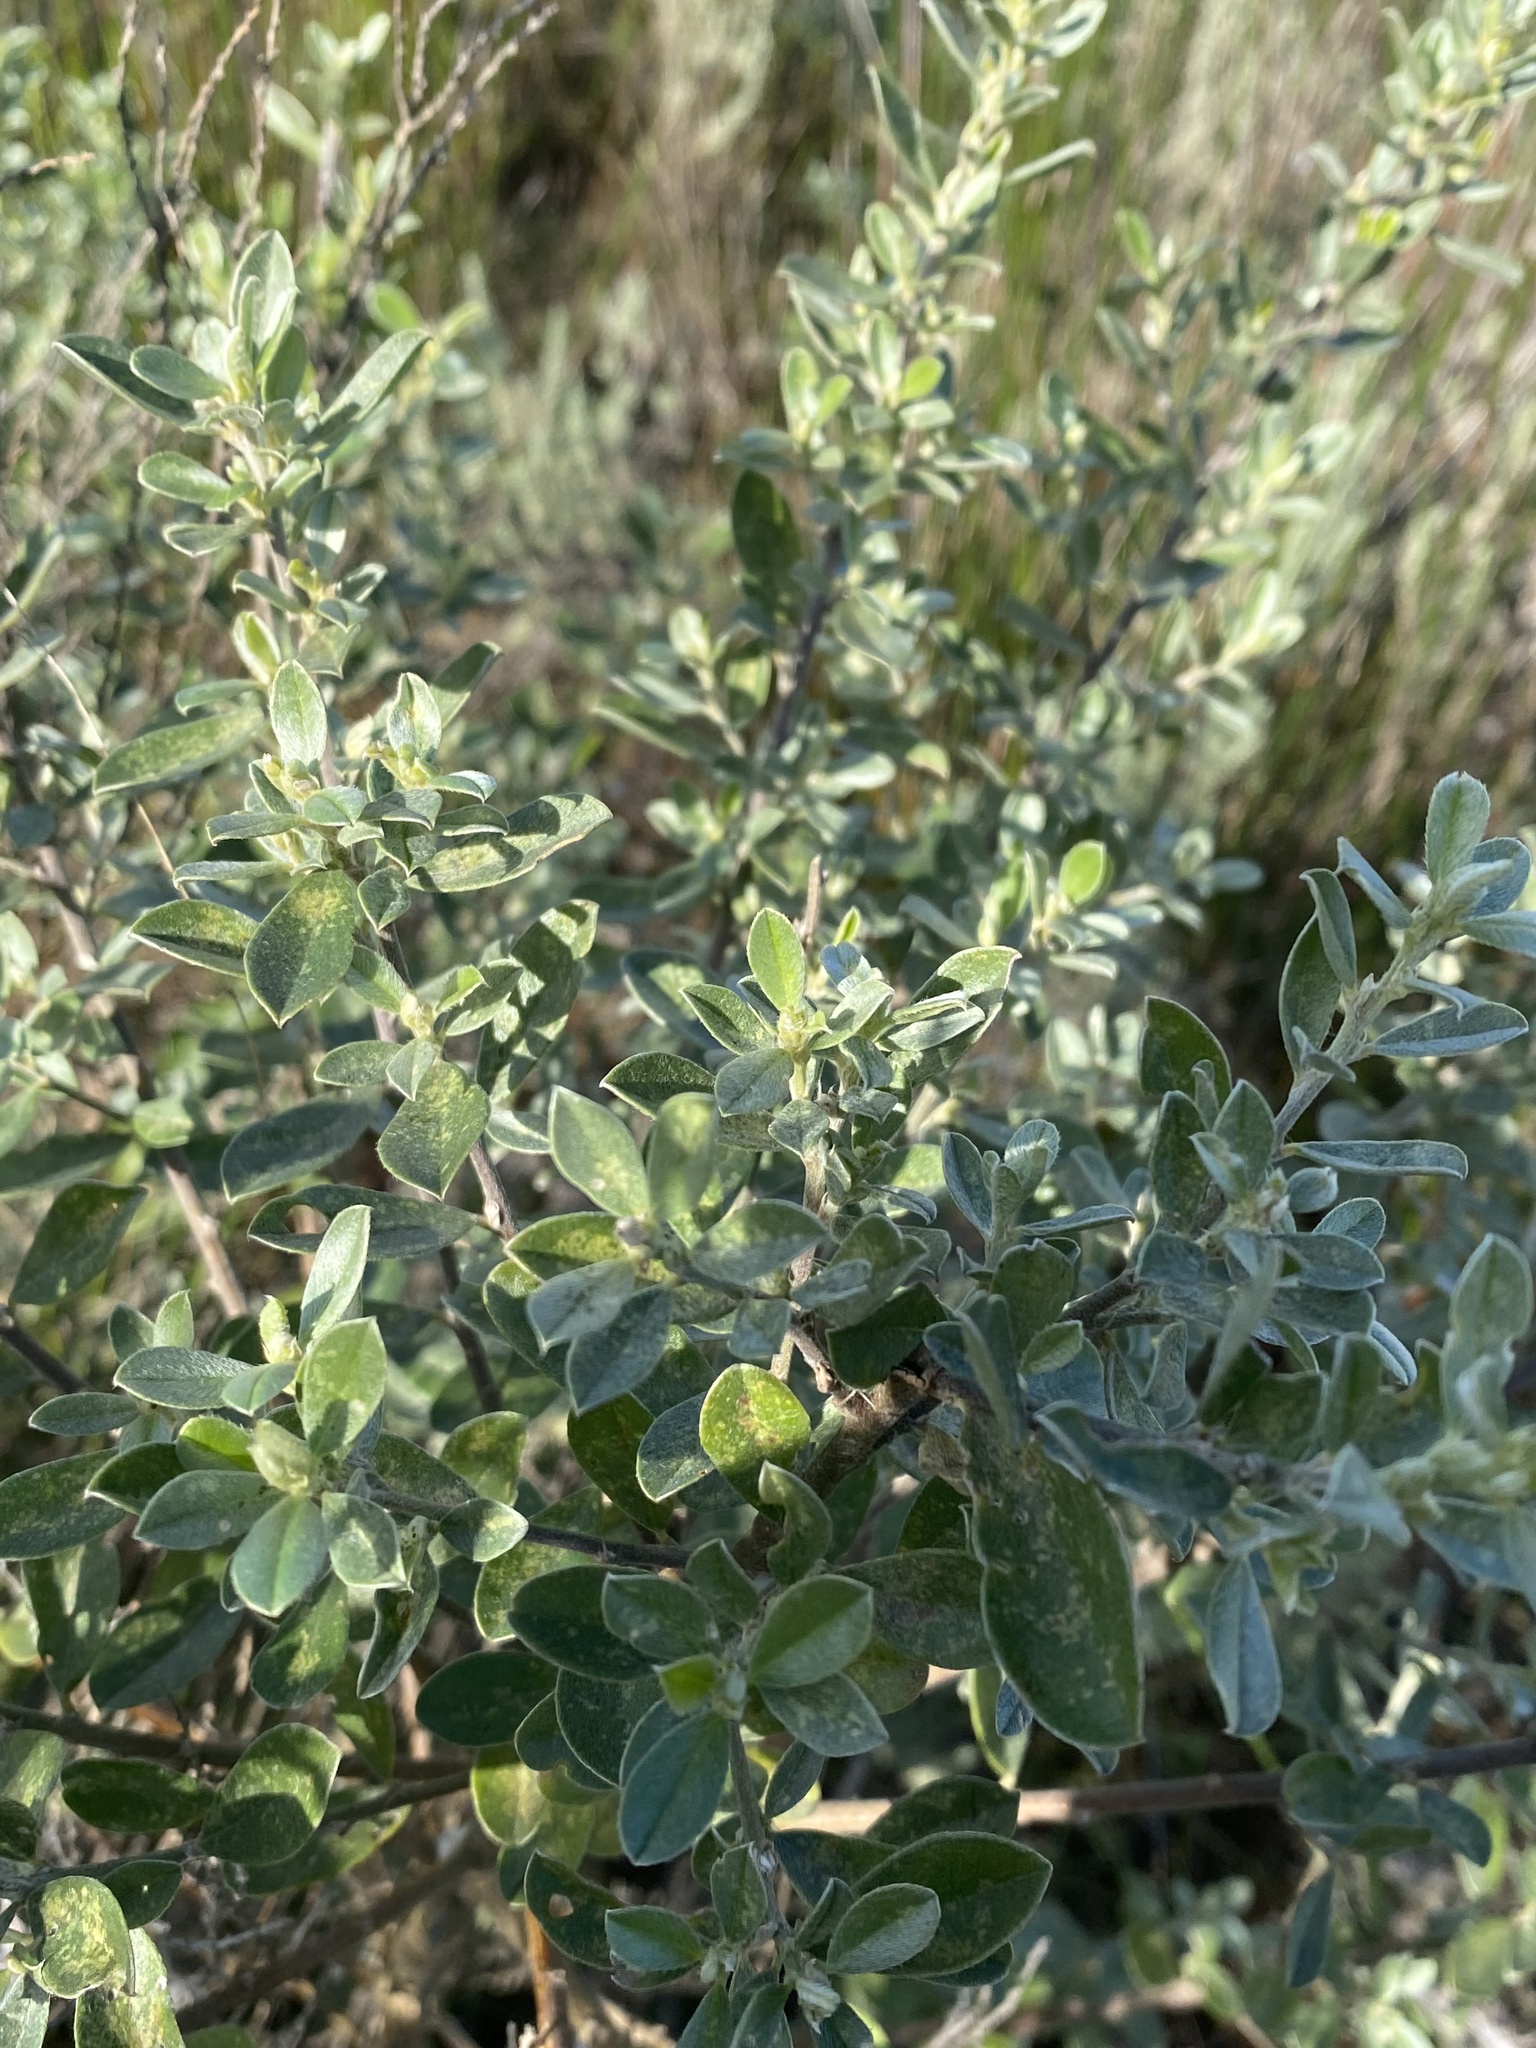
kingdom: Plantae
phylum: Tracheophyta
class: Magnoliopsida
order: Fabales
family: Fabaceae
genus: Podalyria
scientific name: Podalyria myrtillifolia
